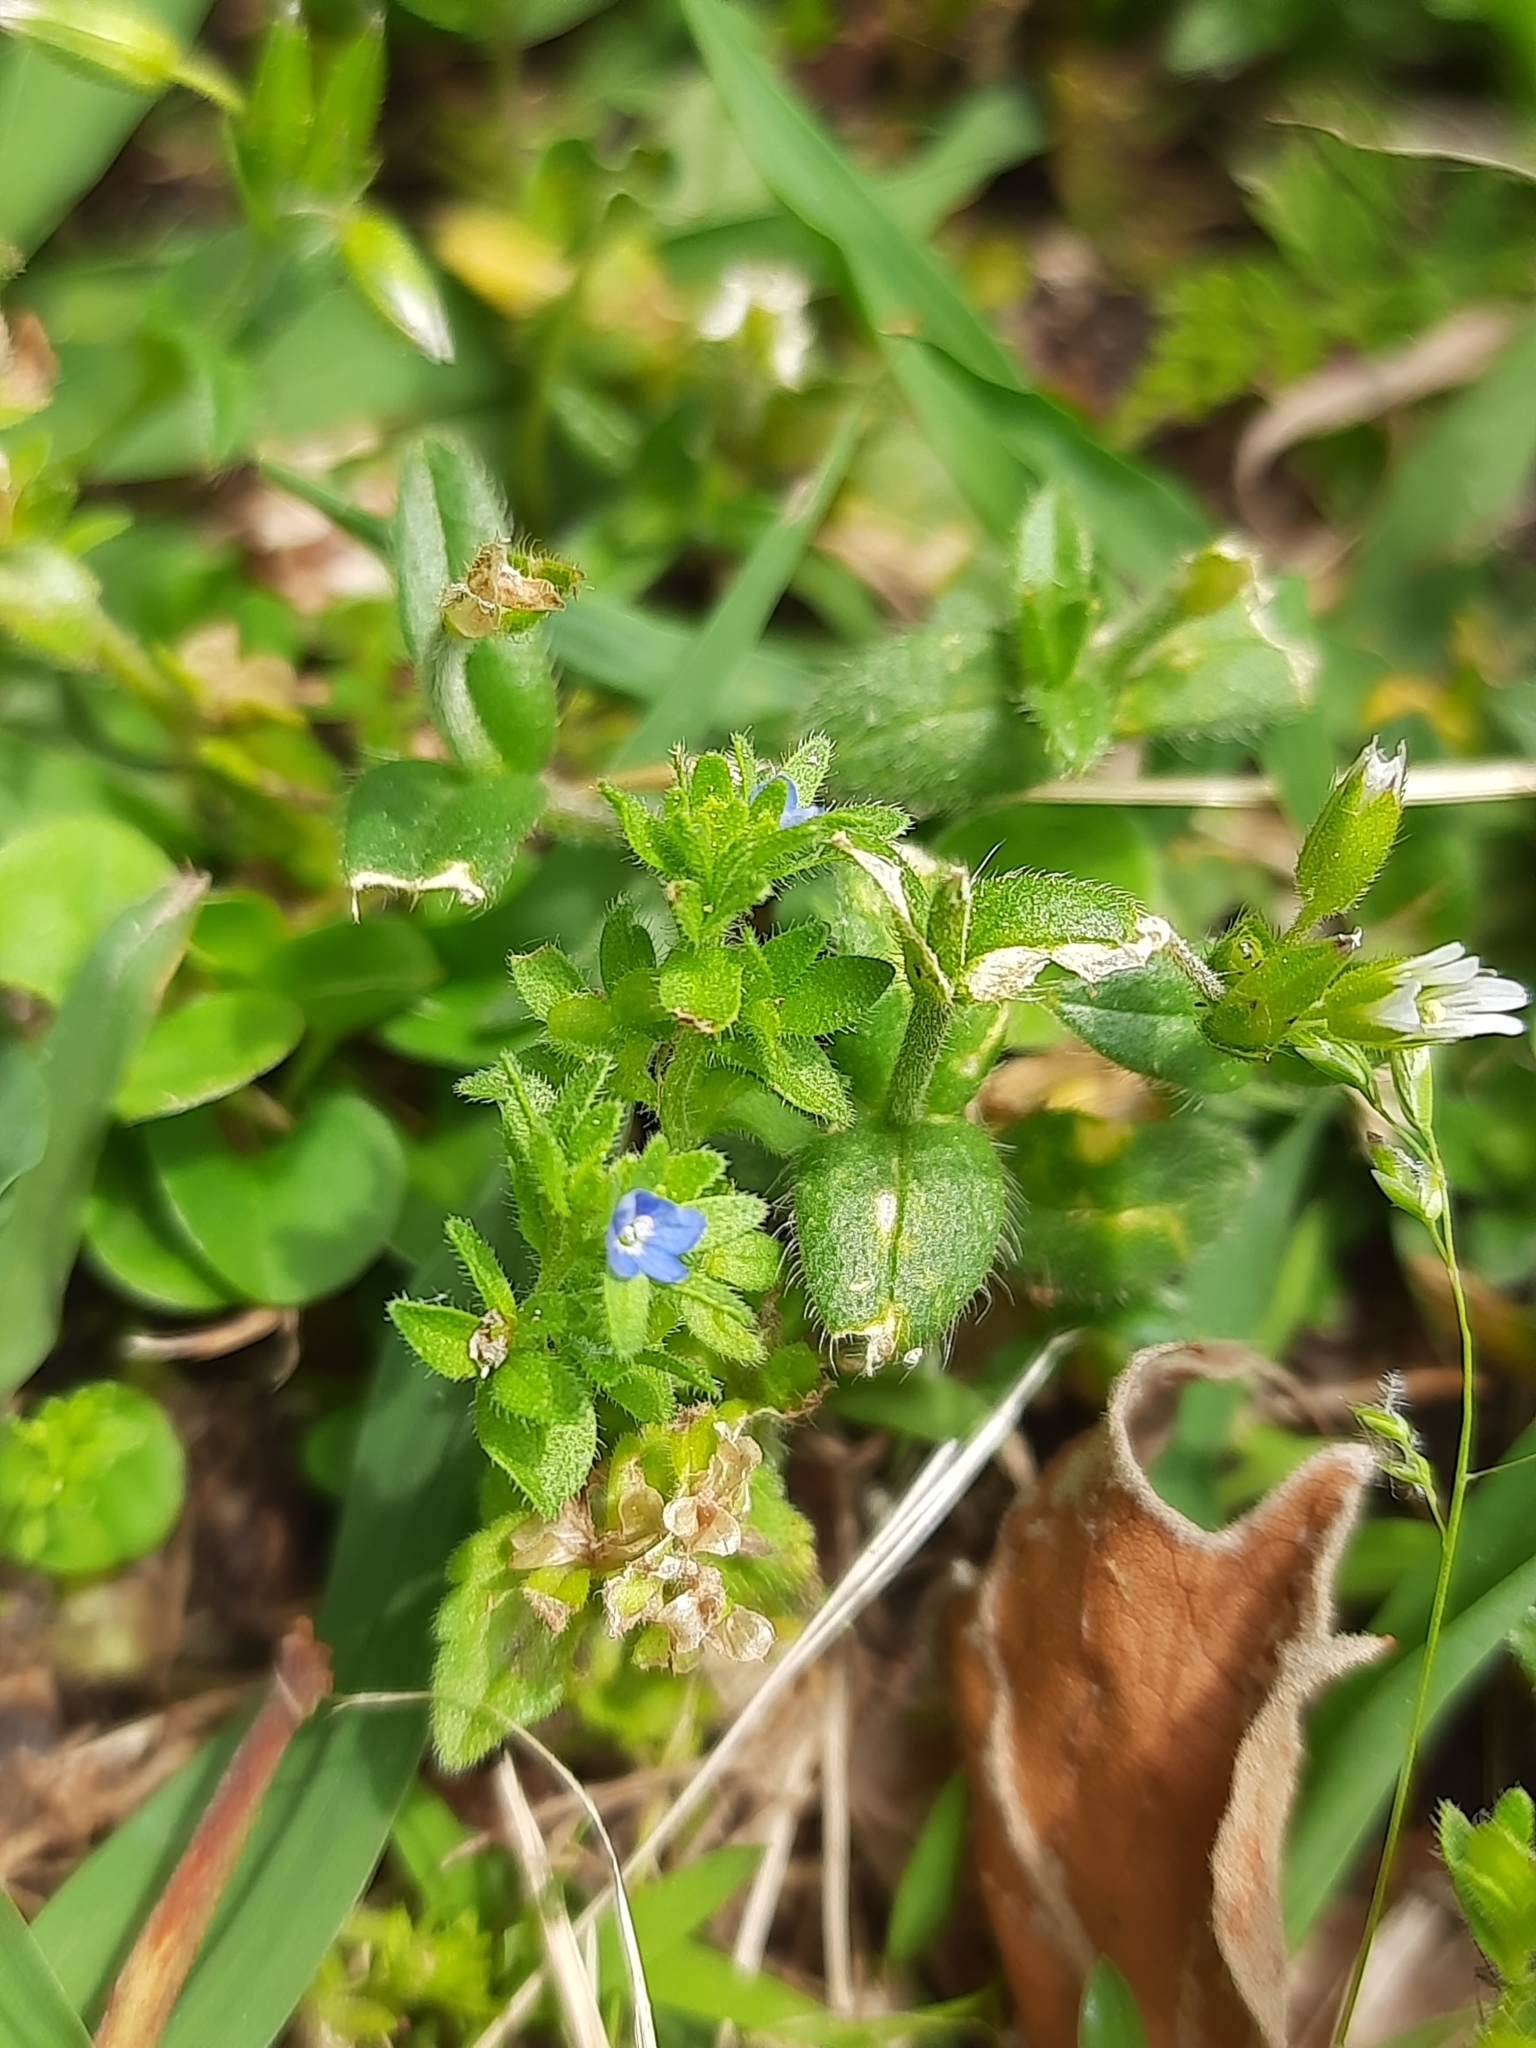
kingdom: Plantae
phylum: Tracheophyta
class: Magnoliopsida
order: Lamiales
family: Plantaginaceae
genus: Veronica
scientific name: Veronica arvensis
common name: Corn speedwell
